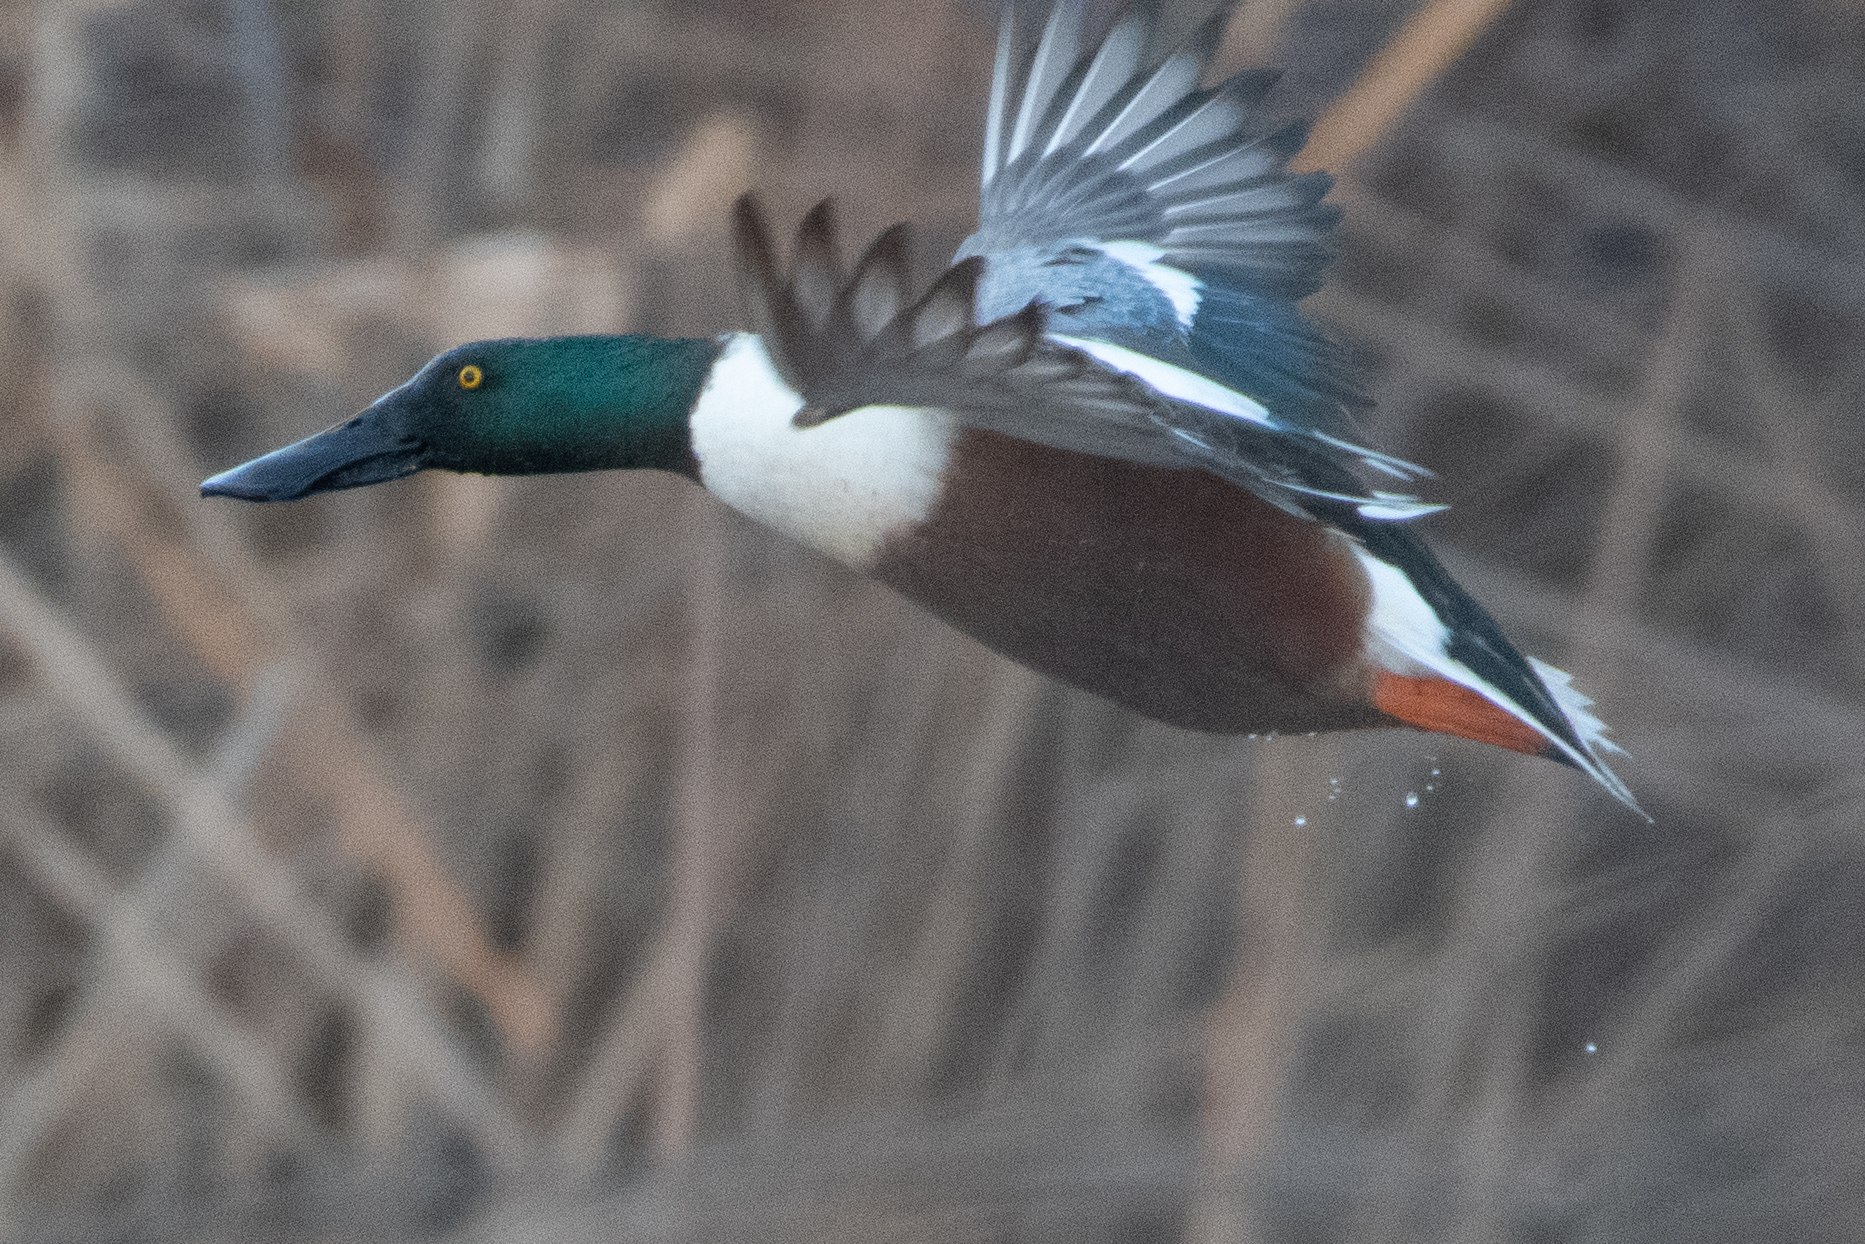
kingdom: Animalia
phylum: Chordata
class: Aves
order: Anseriformes
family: Anatidae
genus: Spatula
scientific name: Spatula clypeata
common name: Northern shoveler
